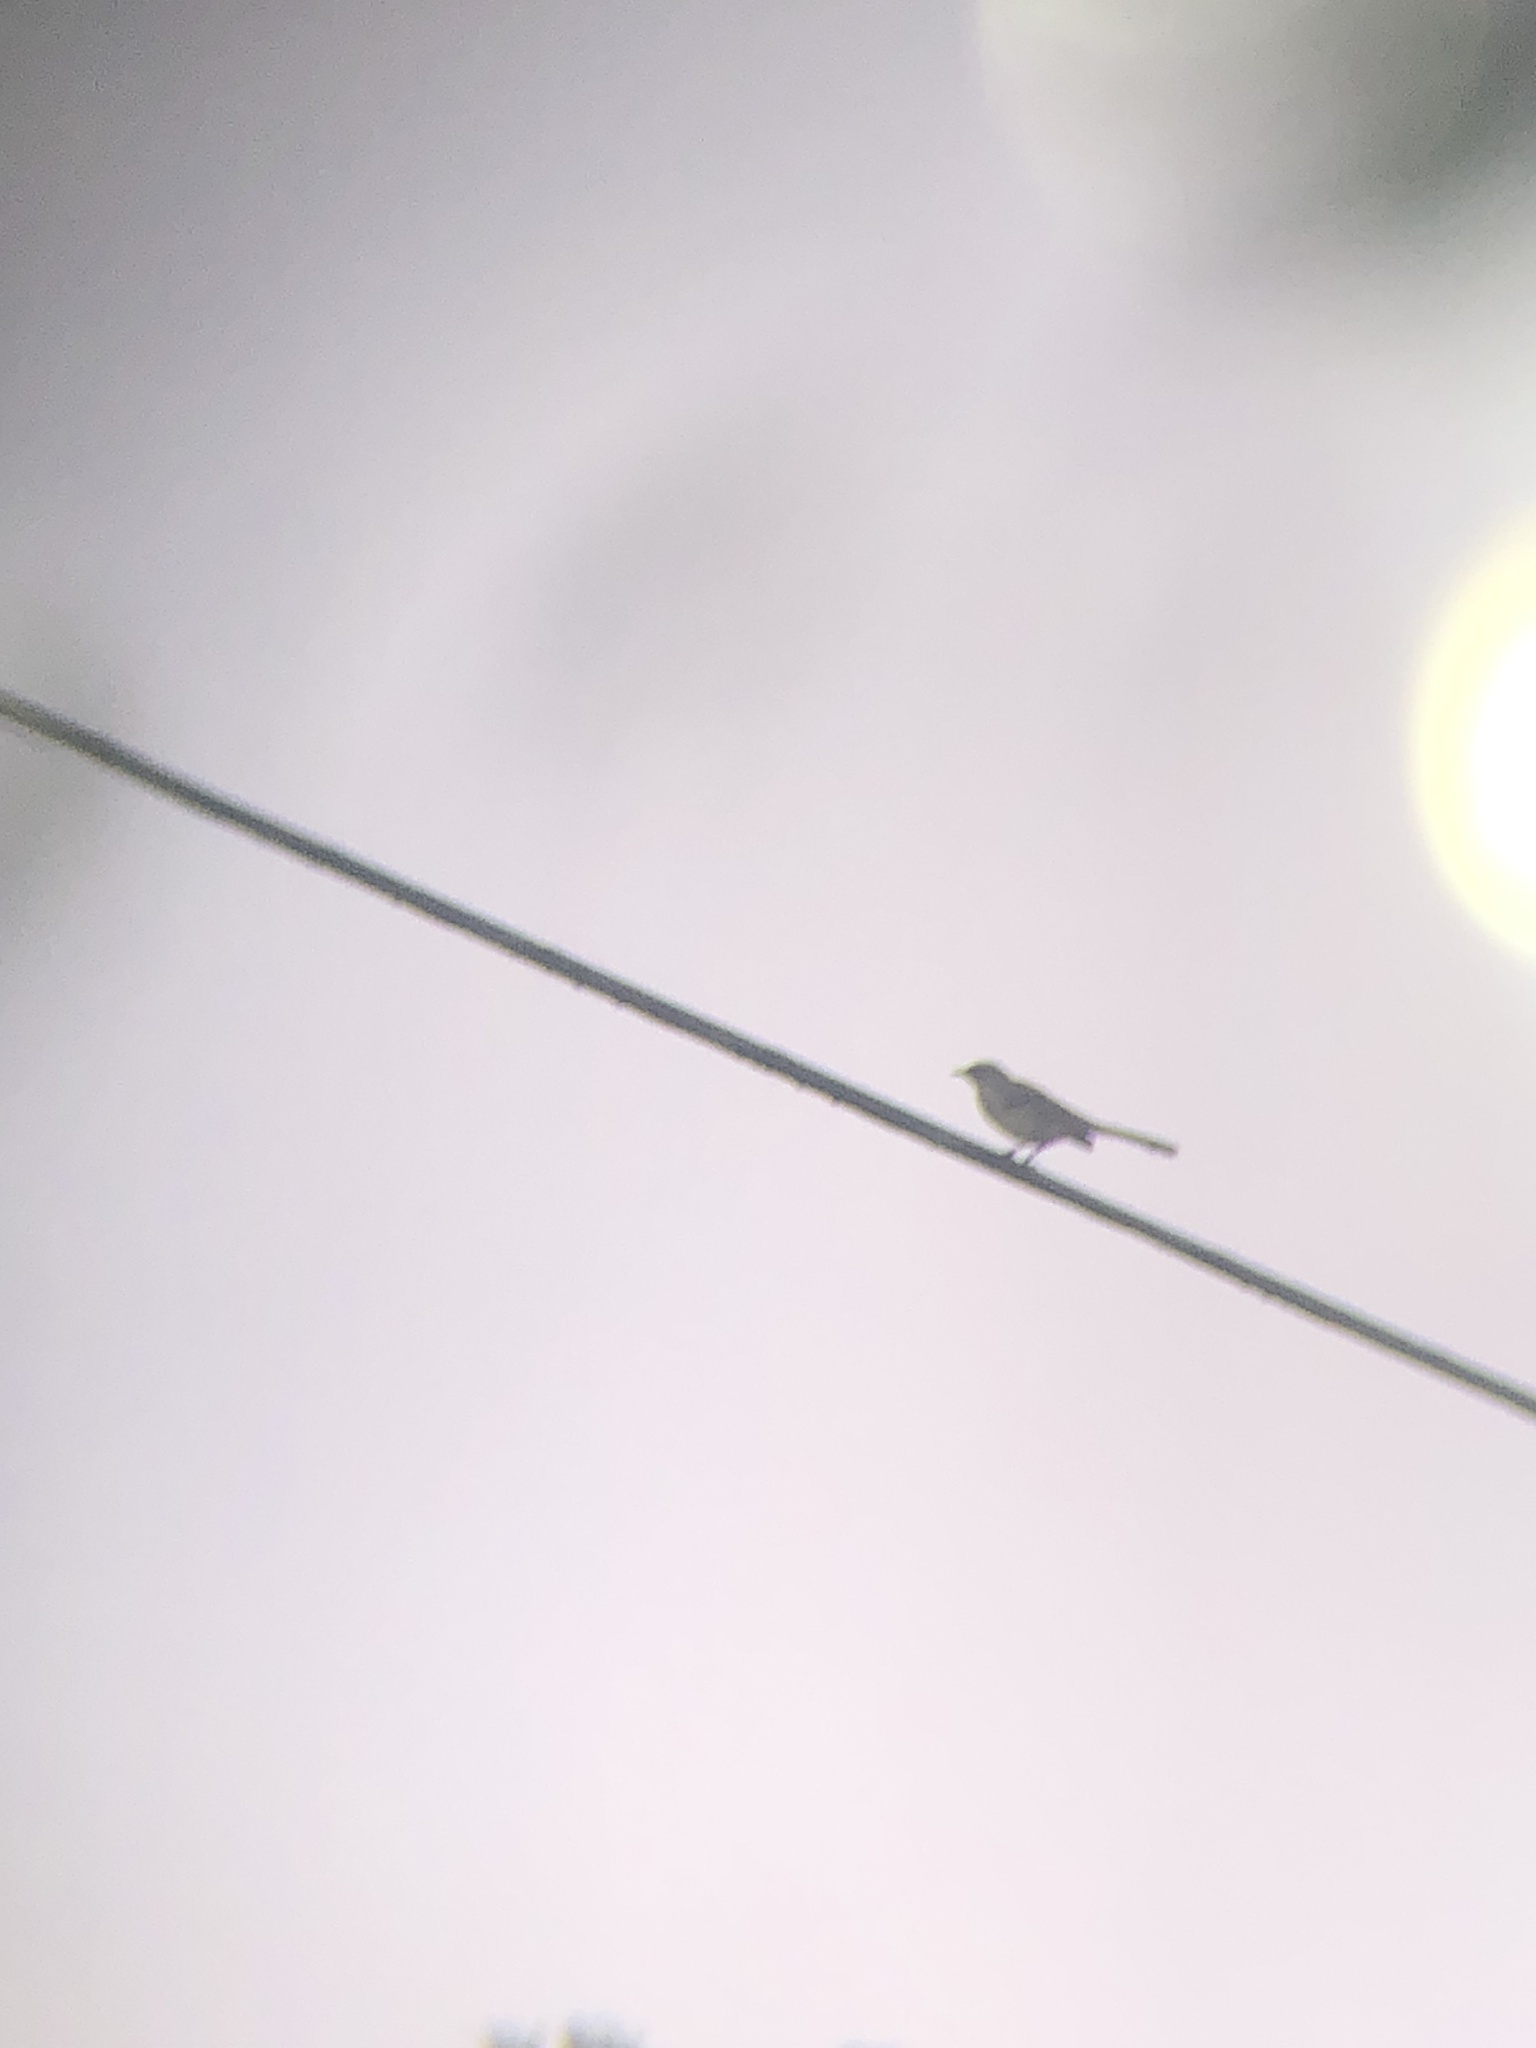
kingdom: Animalia
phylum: Chordata
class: Aves
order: Passeriformes
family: Mimidae
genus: Mimus
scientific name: Mimus polyglottos
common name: Northern mockingbird
